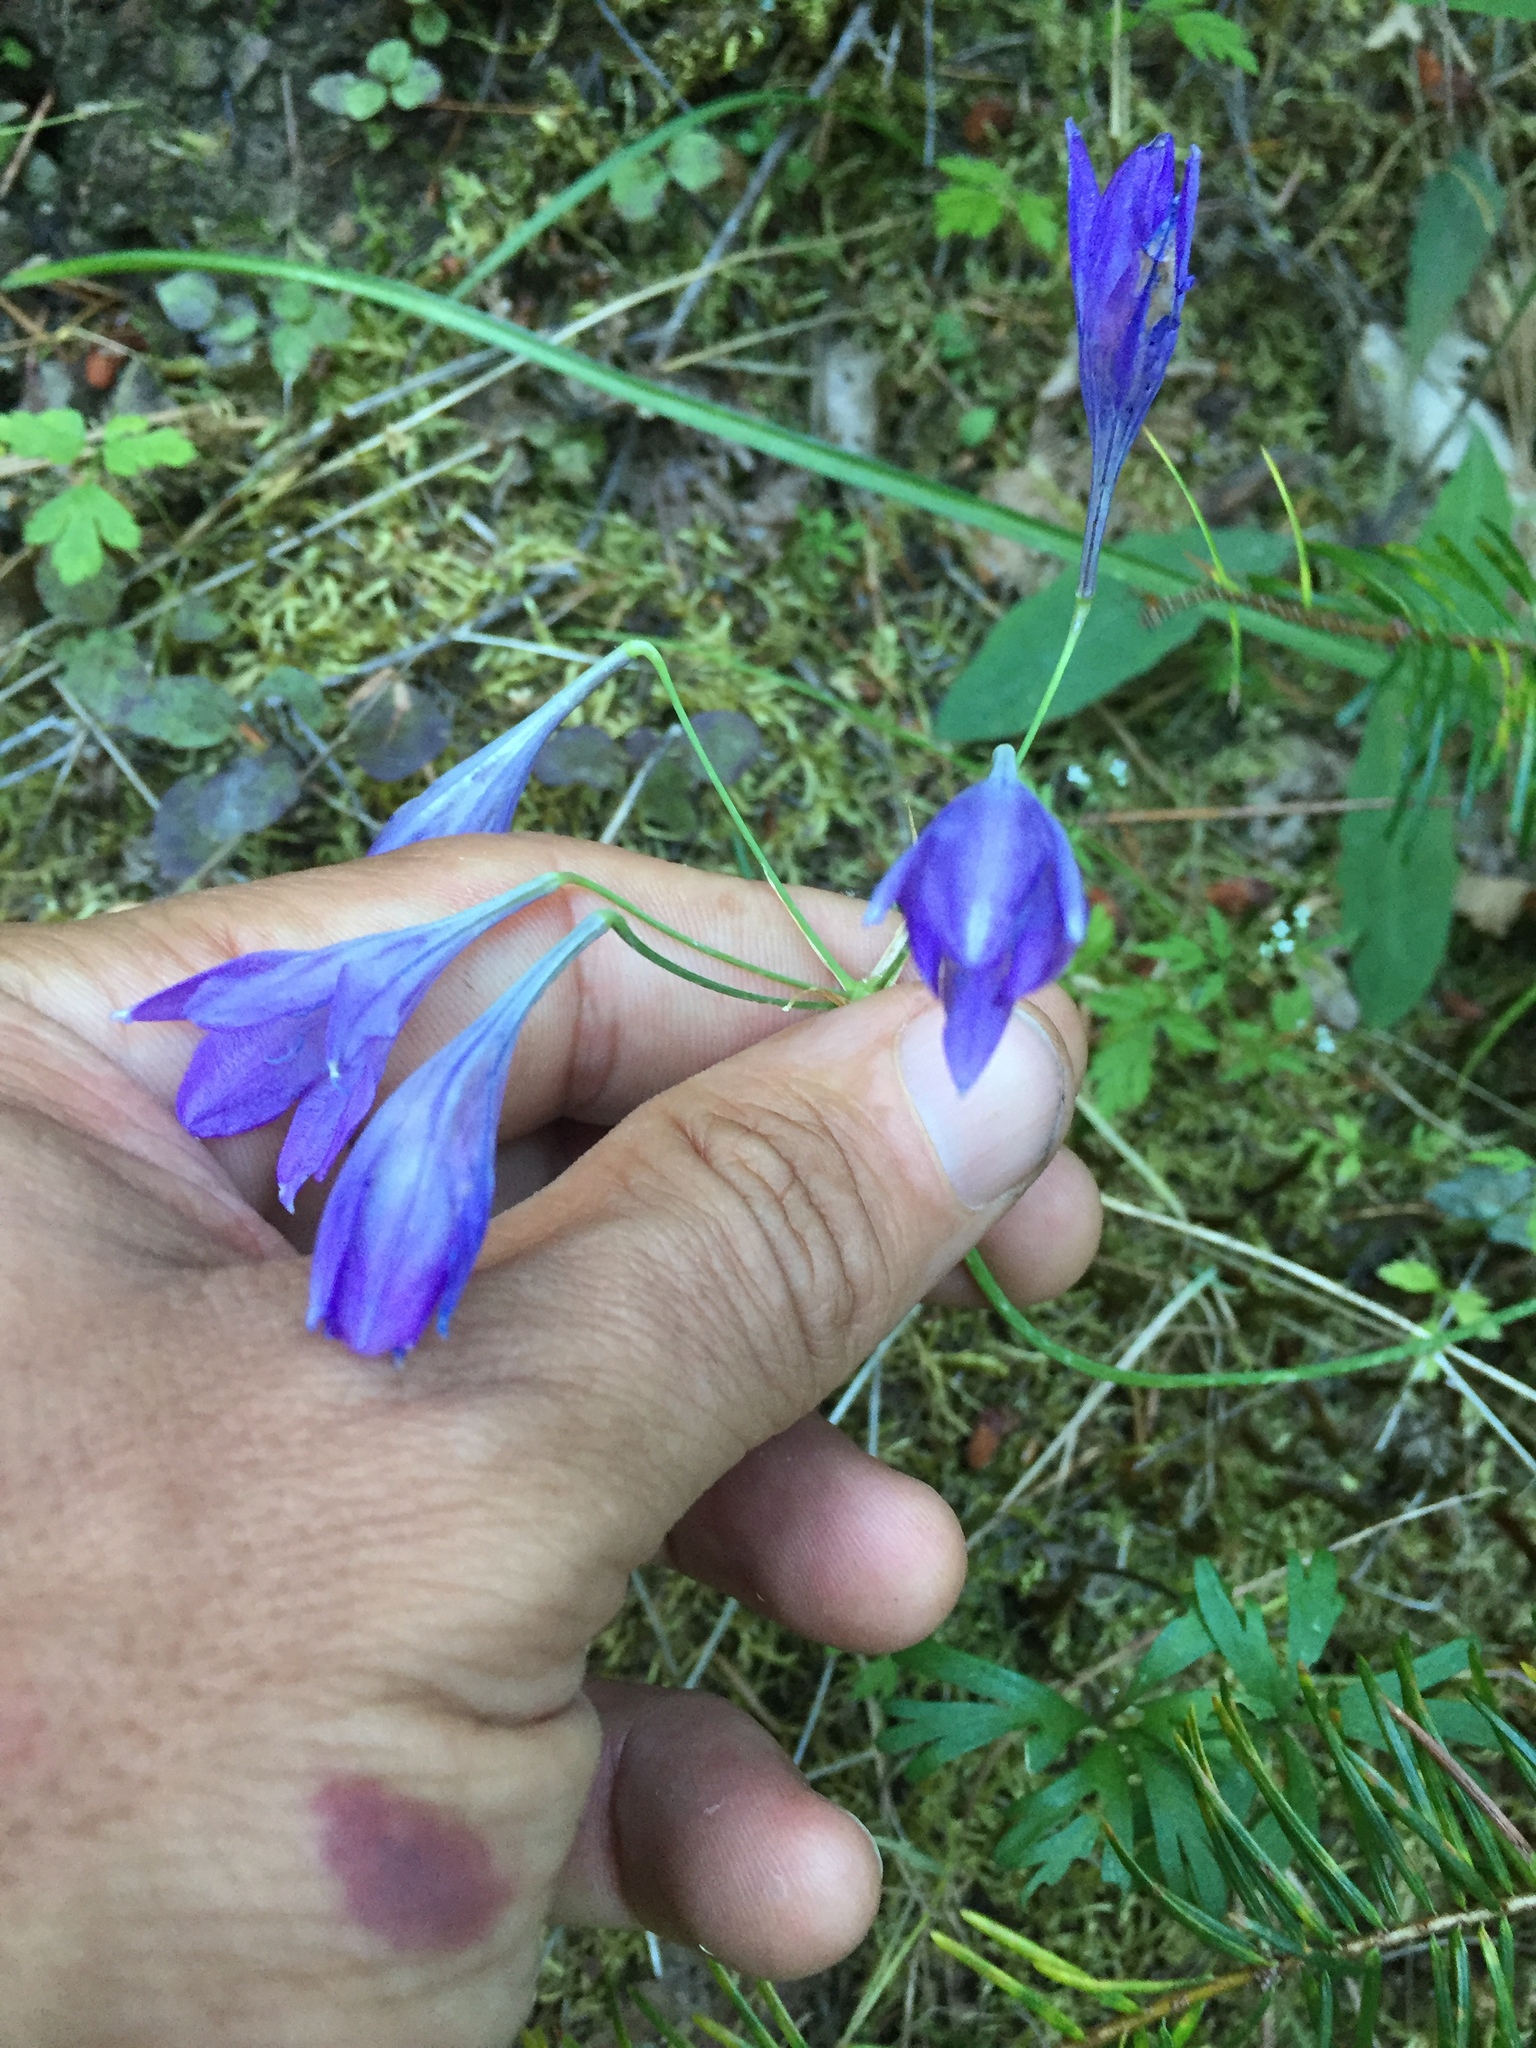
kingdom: Plantae
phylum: Tracheophyta
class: Liliopsida
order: Asparagales
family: Asparagaceae
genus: Triteleia
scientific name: Triteleia laxa
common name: Triplet-lily
